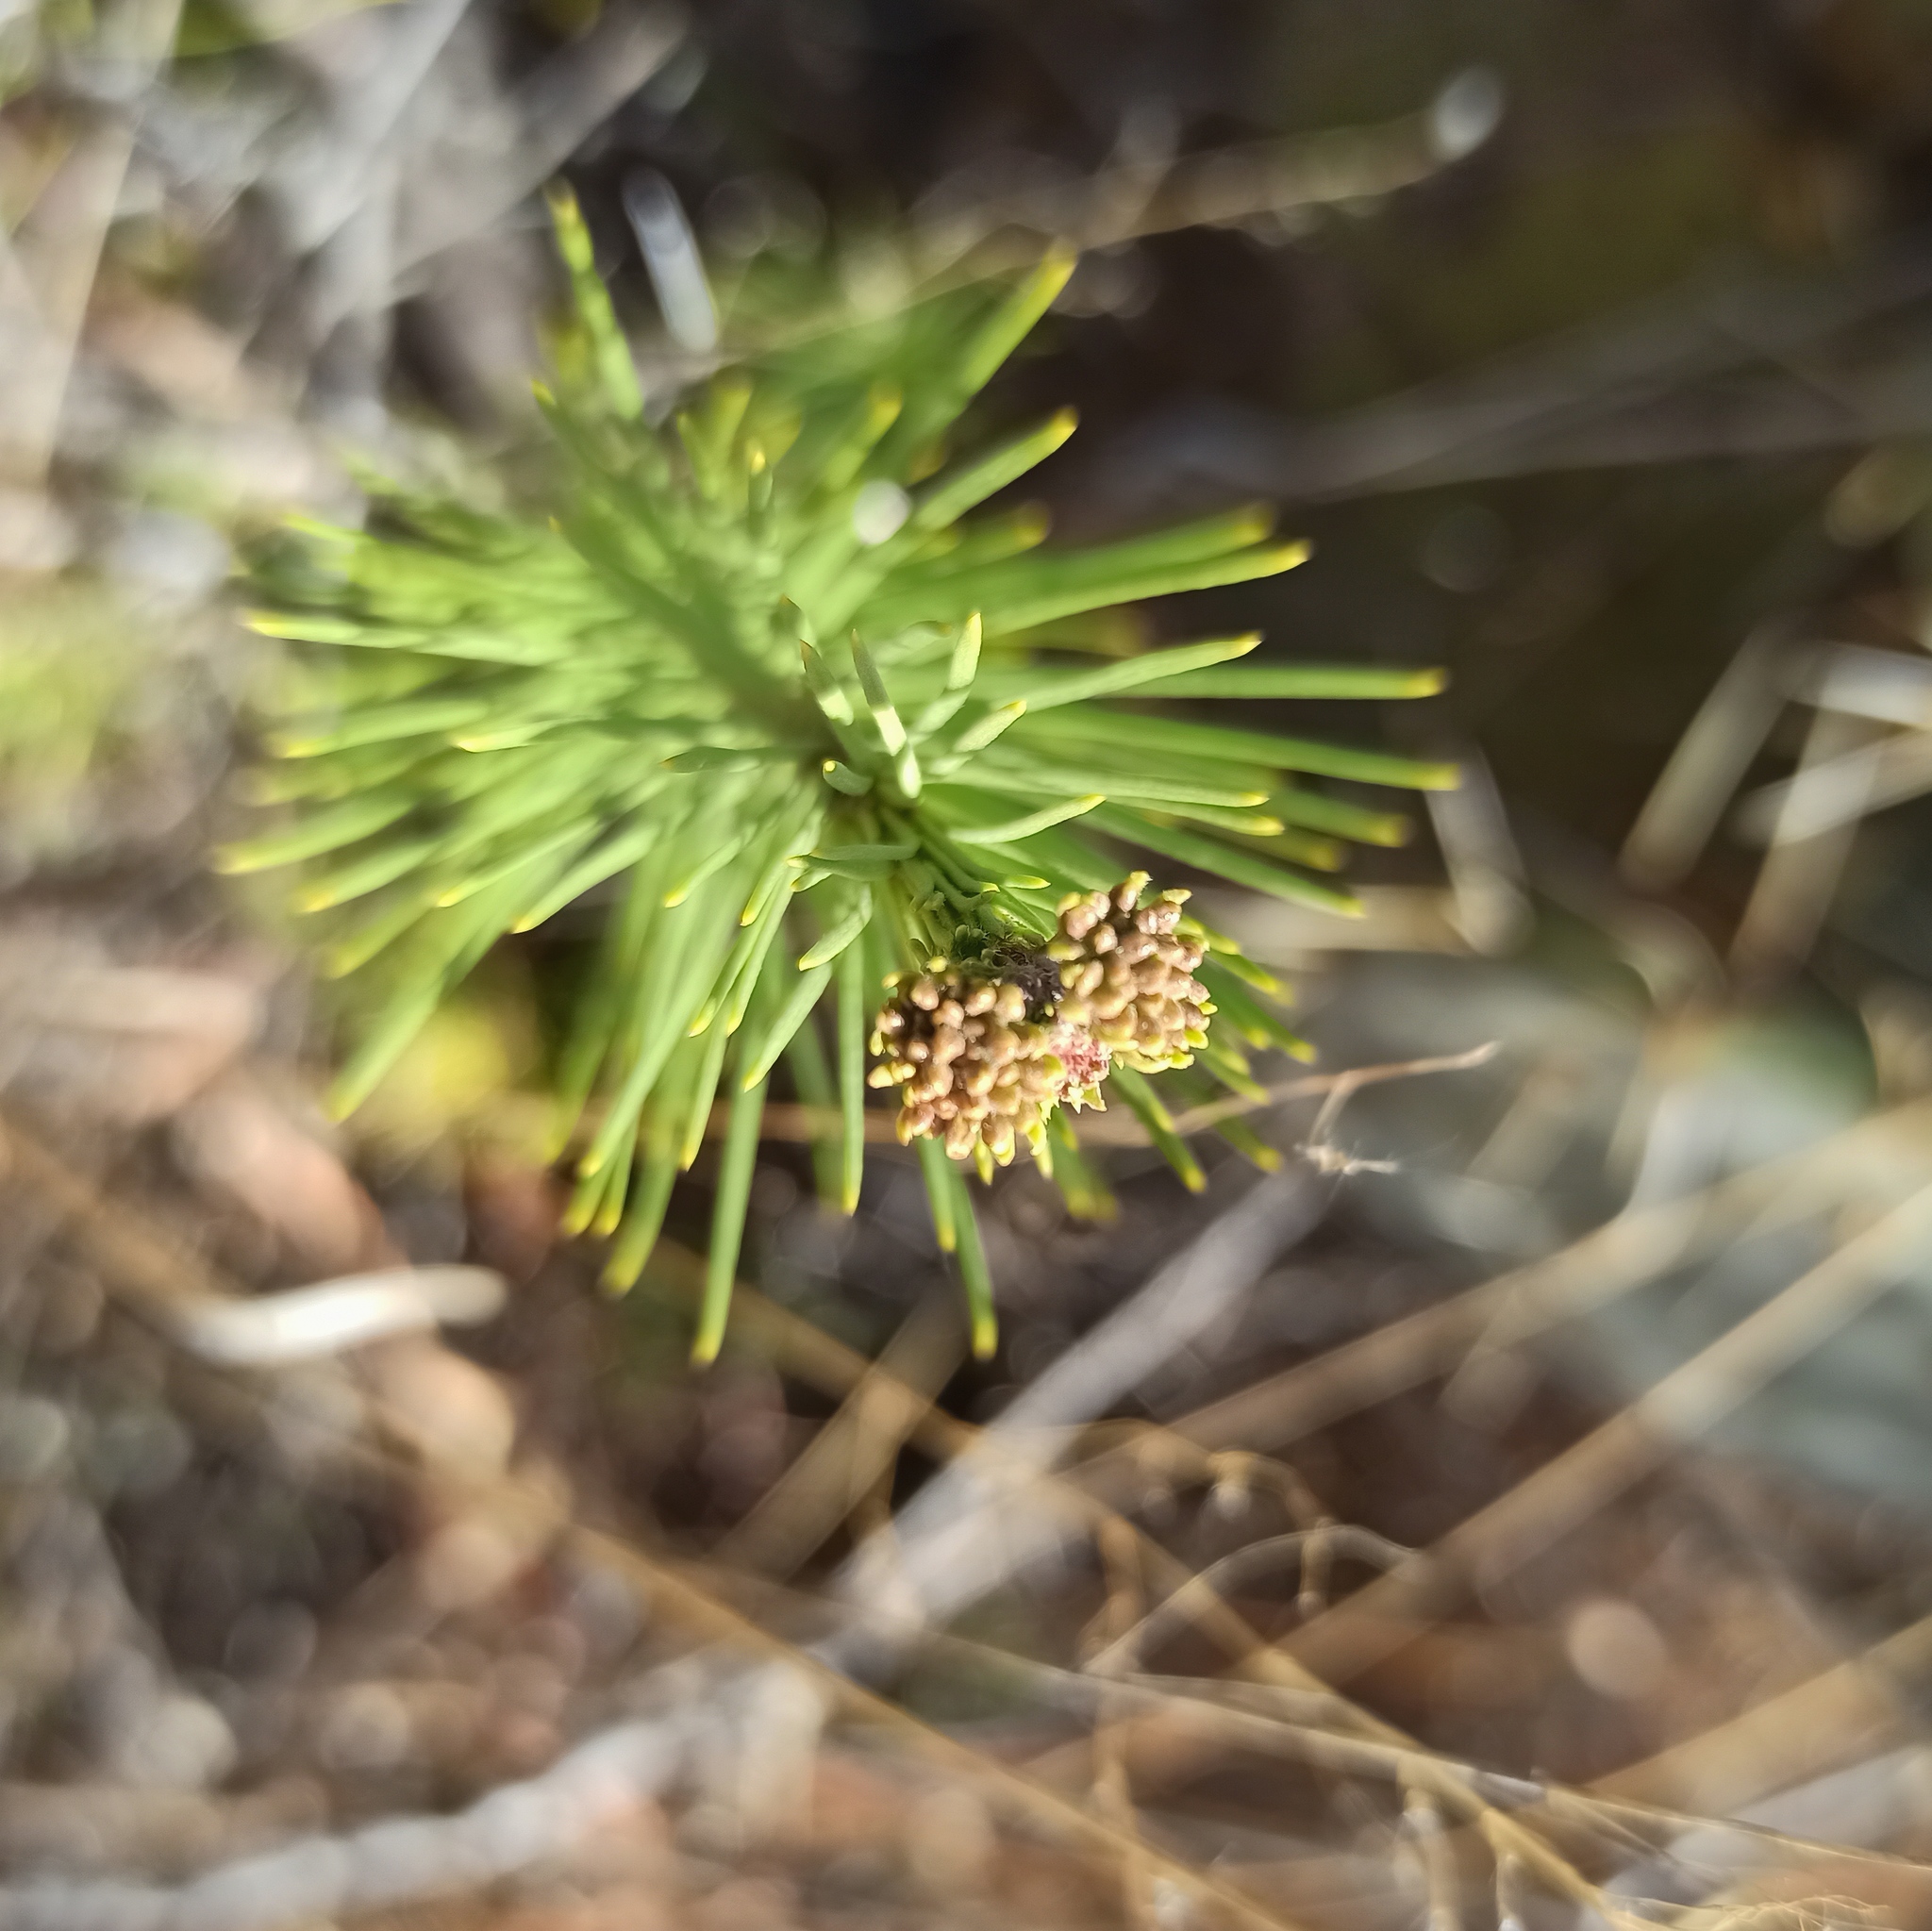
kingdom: Plantae
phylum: Tracheophyta
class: Magnoliopsida
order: Gentianales
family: Apocynaceae
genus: Asclepias
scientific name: Asclepias linaria
